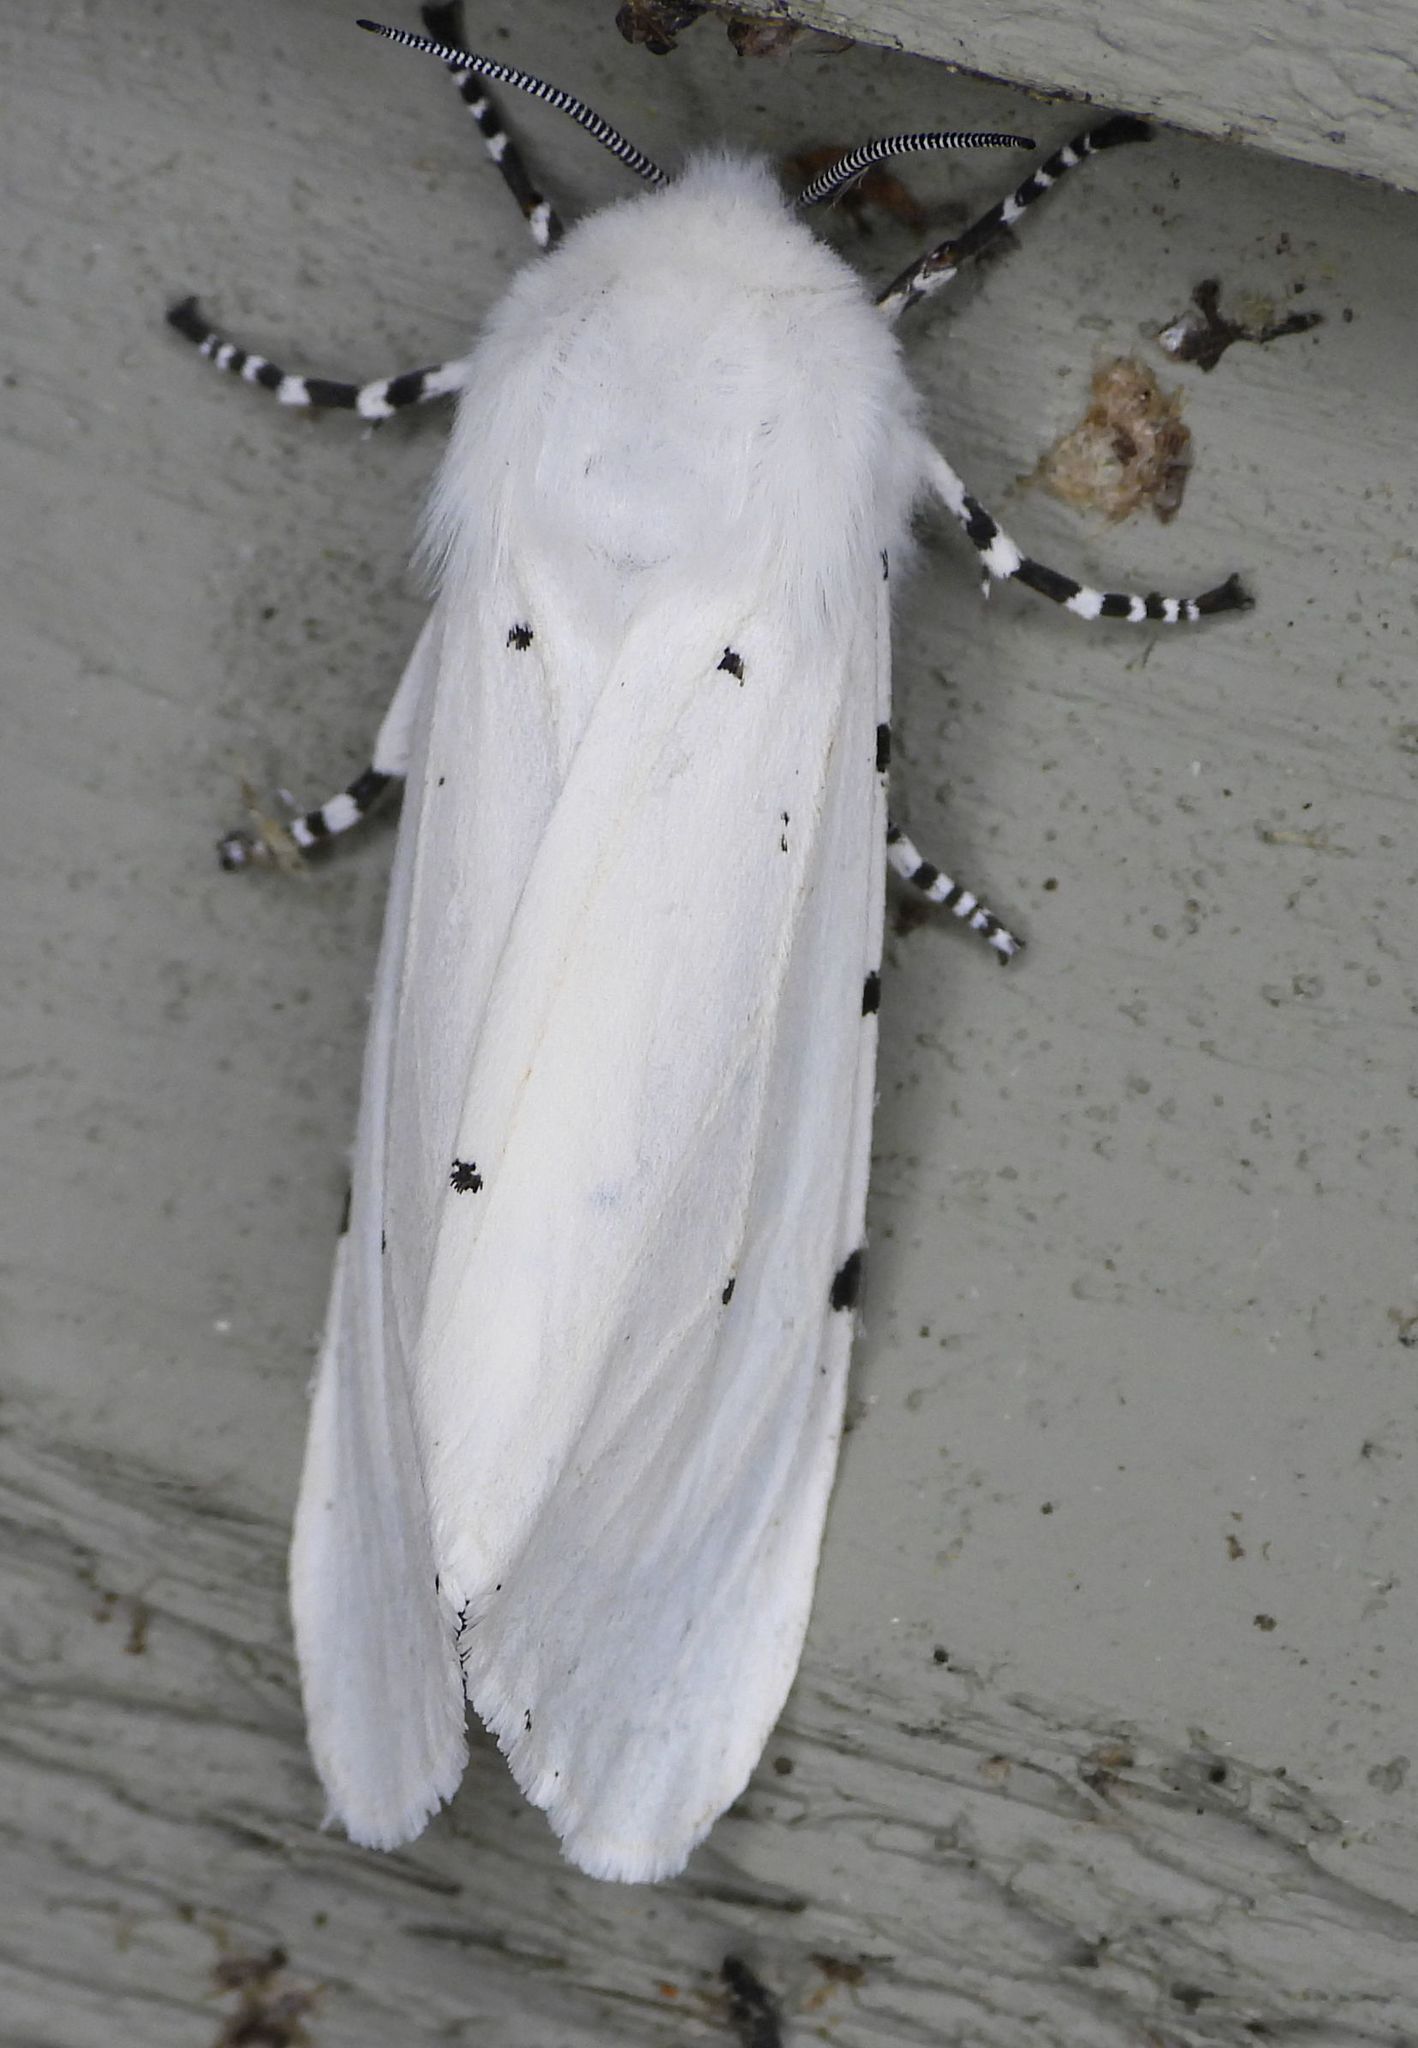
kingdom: Animalia
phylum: Arthropoda
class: Insecta
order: Lepidoptera
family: Erebidae
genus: Estigmene
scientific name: Estigmene acrea
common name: Salt marsh moth
